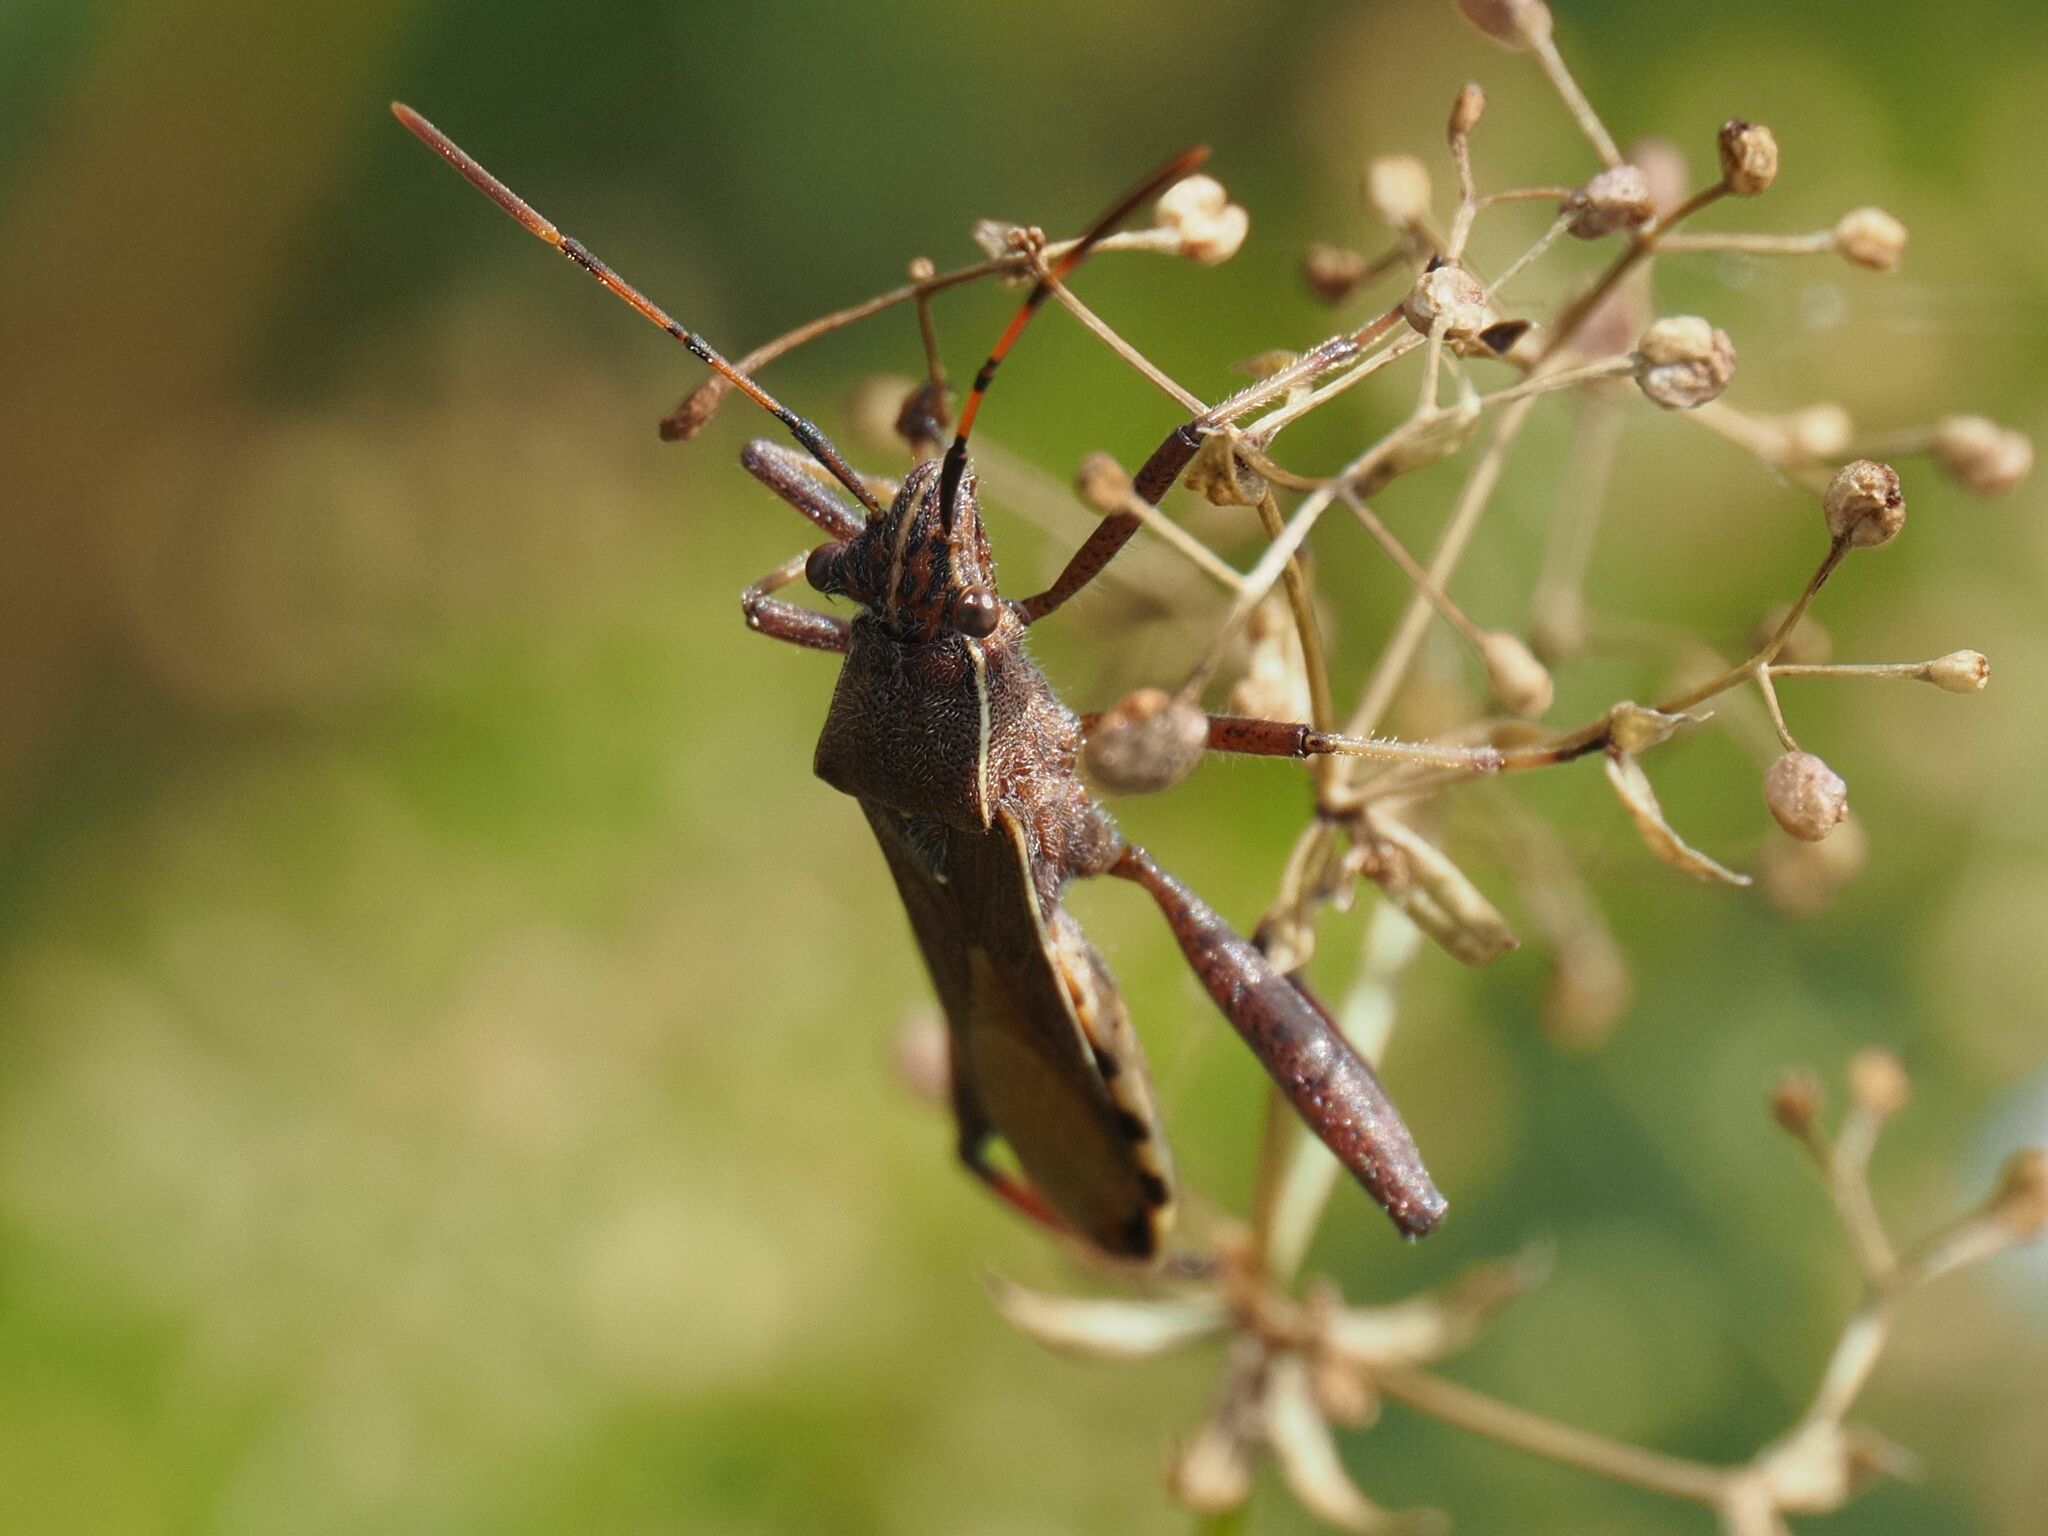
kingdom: Animalia
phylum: Arthropoda
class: Insecta
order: Hemiptera
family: Alydidae
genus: Camptopus
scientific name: Camptopus lateralis
